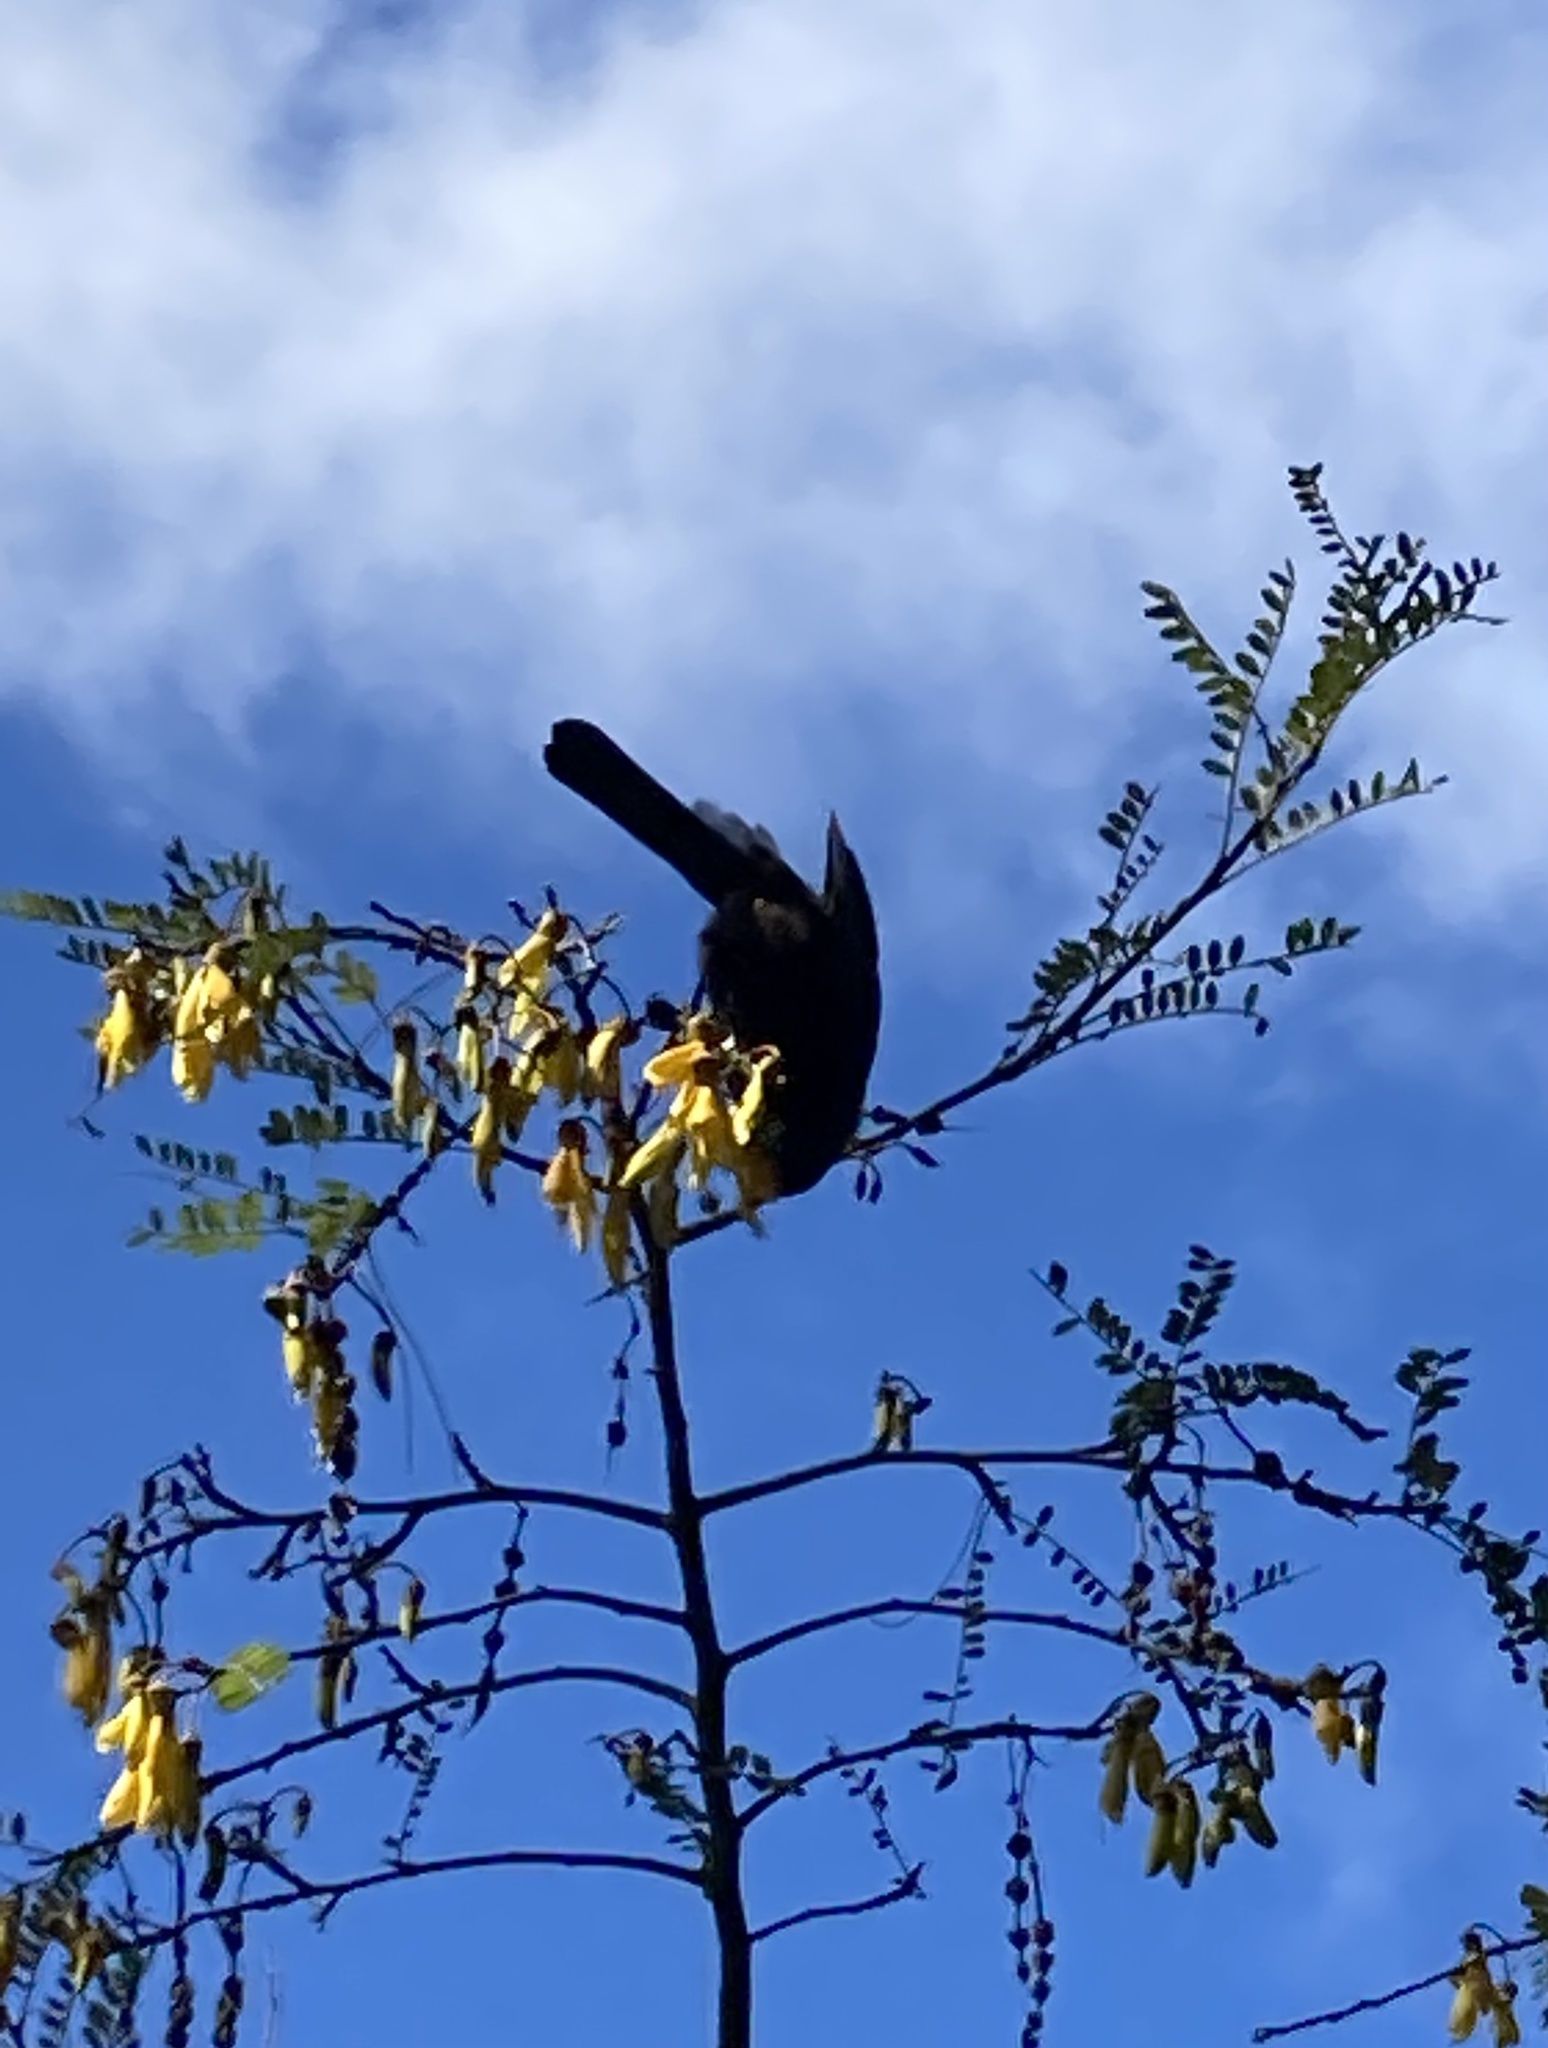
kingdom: Animalia
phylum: Chordata
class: Aves
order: Passeriformes
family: Meliphagidae
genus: Prosthemadera
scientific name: Prosthemadera novaeseelandiae
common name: Tui
